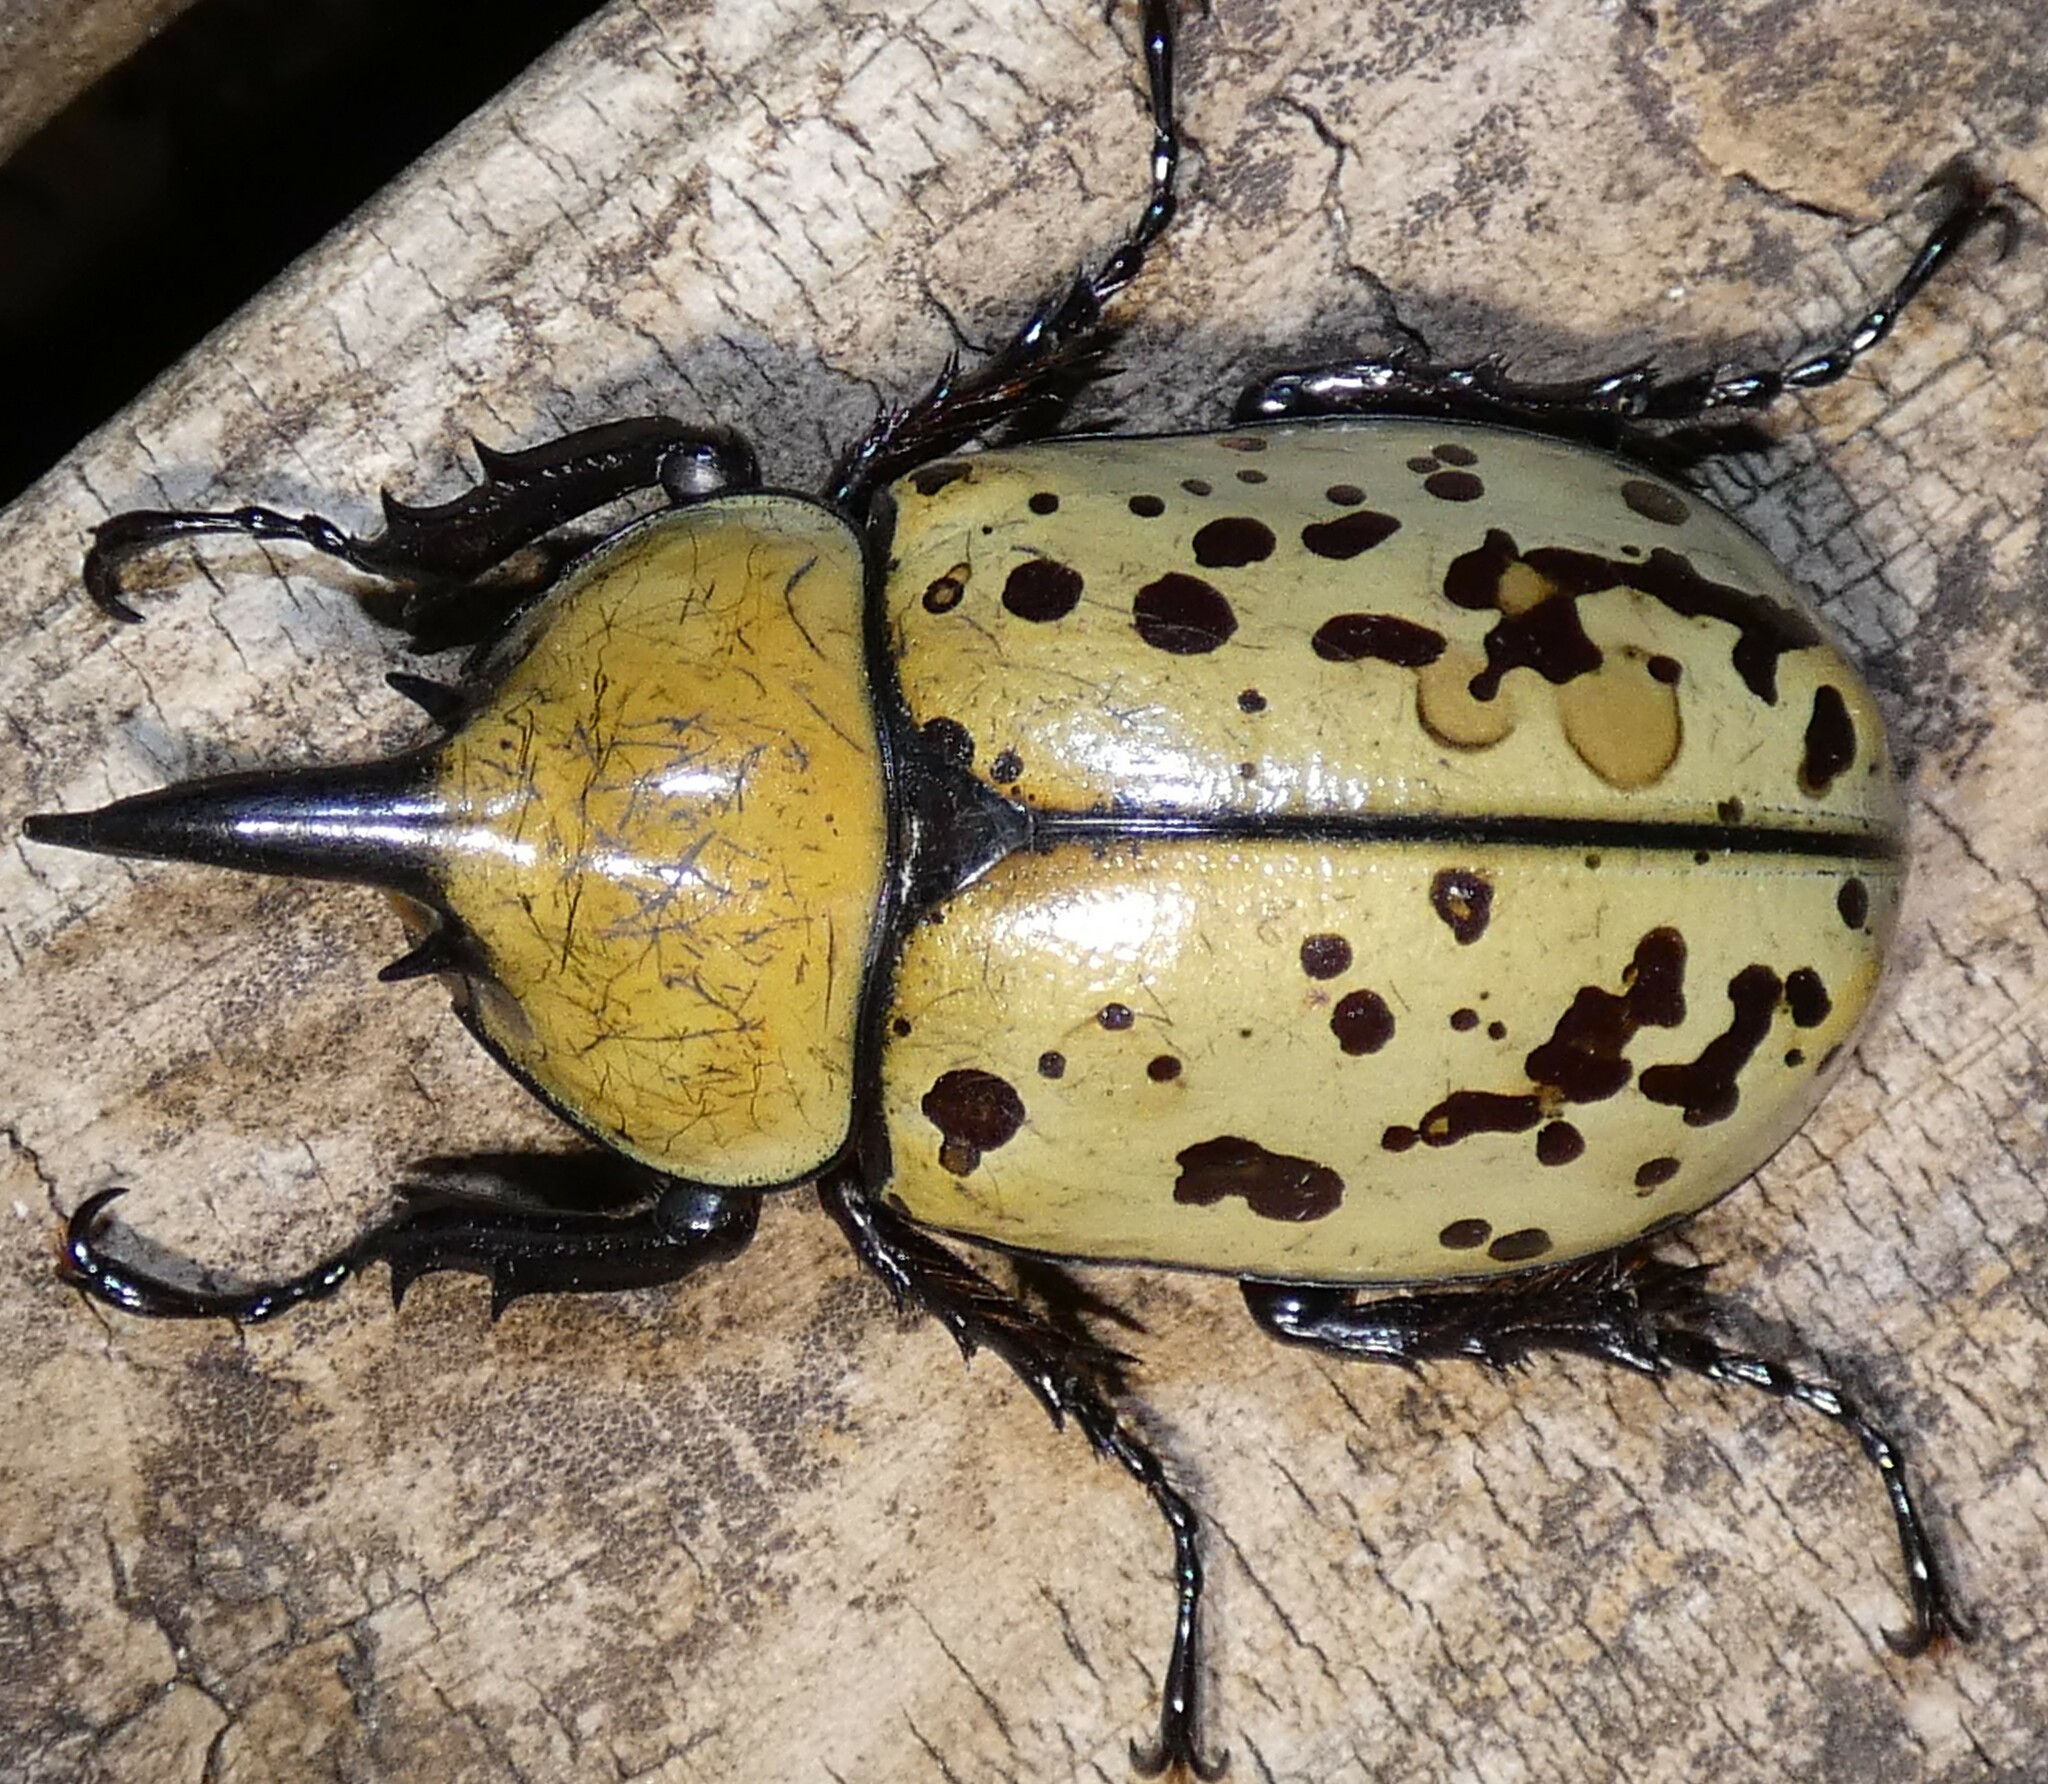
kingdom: Animalia
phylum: Arthropoda
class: Insecta
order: Coleoptera
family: Scarabaeidae
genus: Dynastes
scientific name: Dynastes tityus
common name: Eastern hercules beetle
